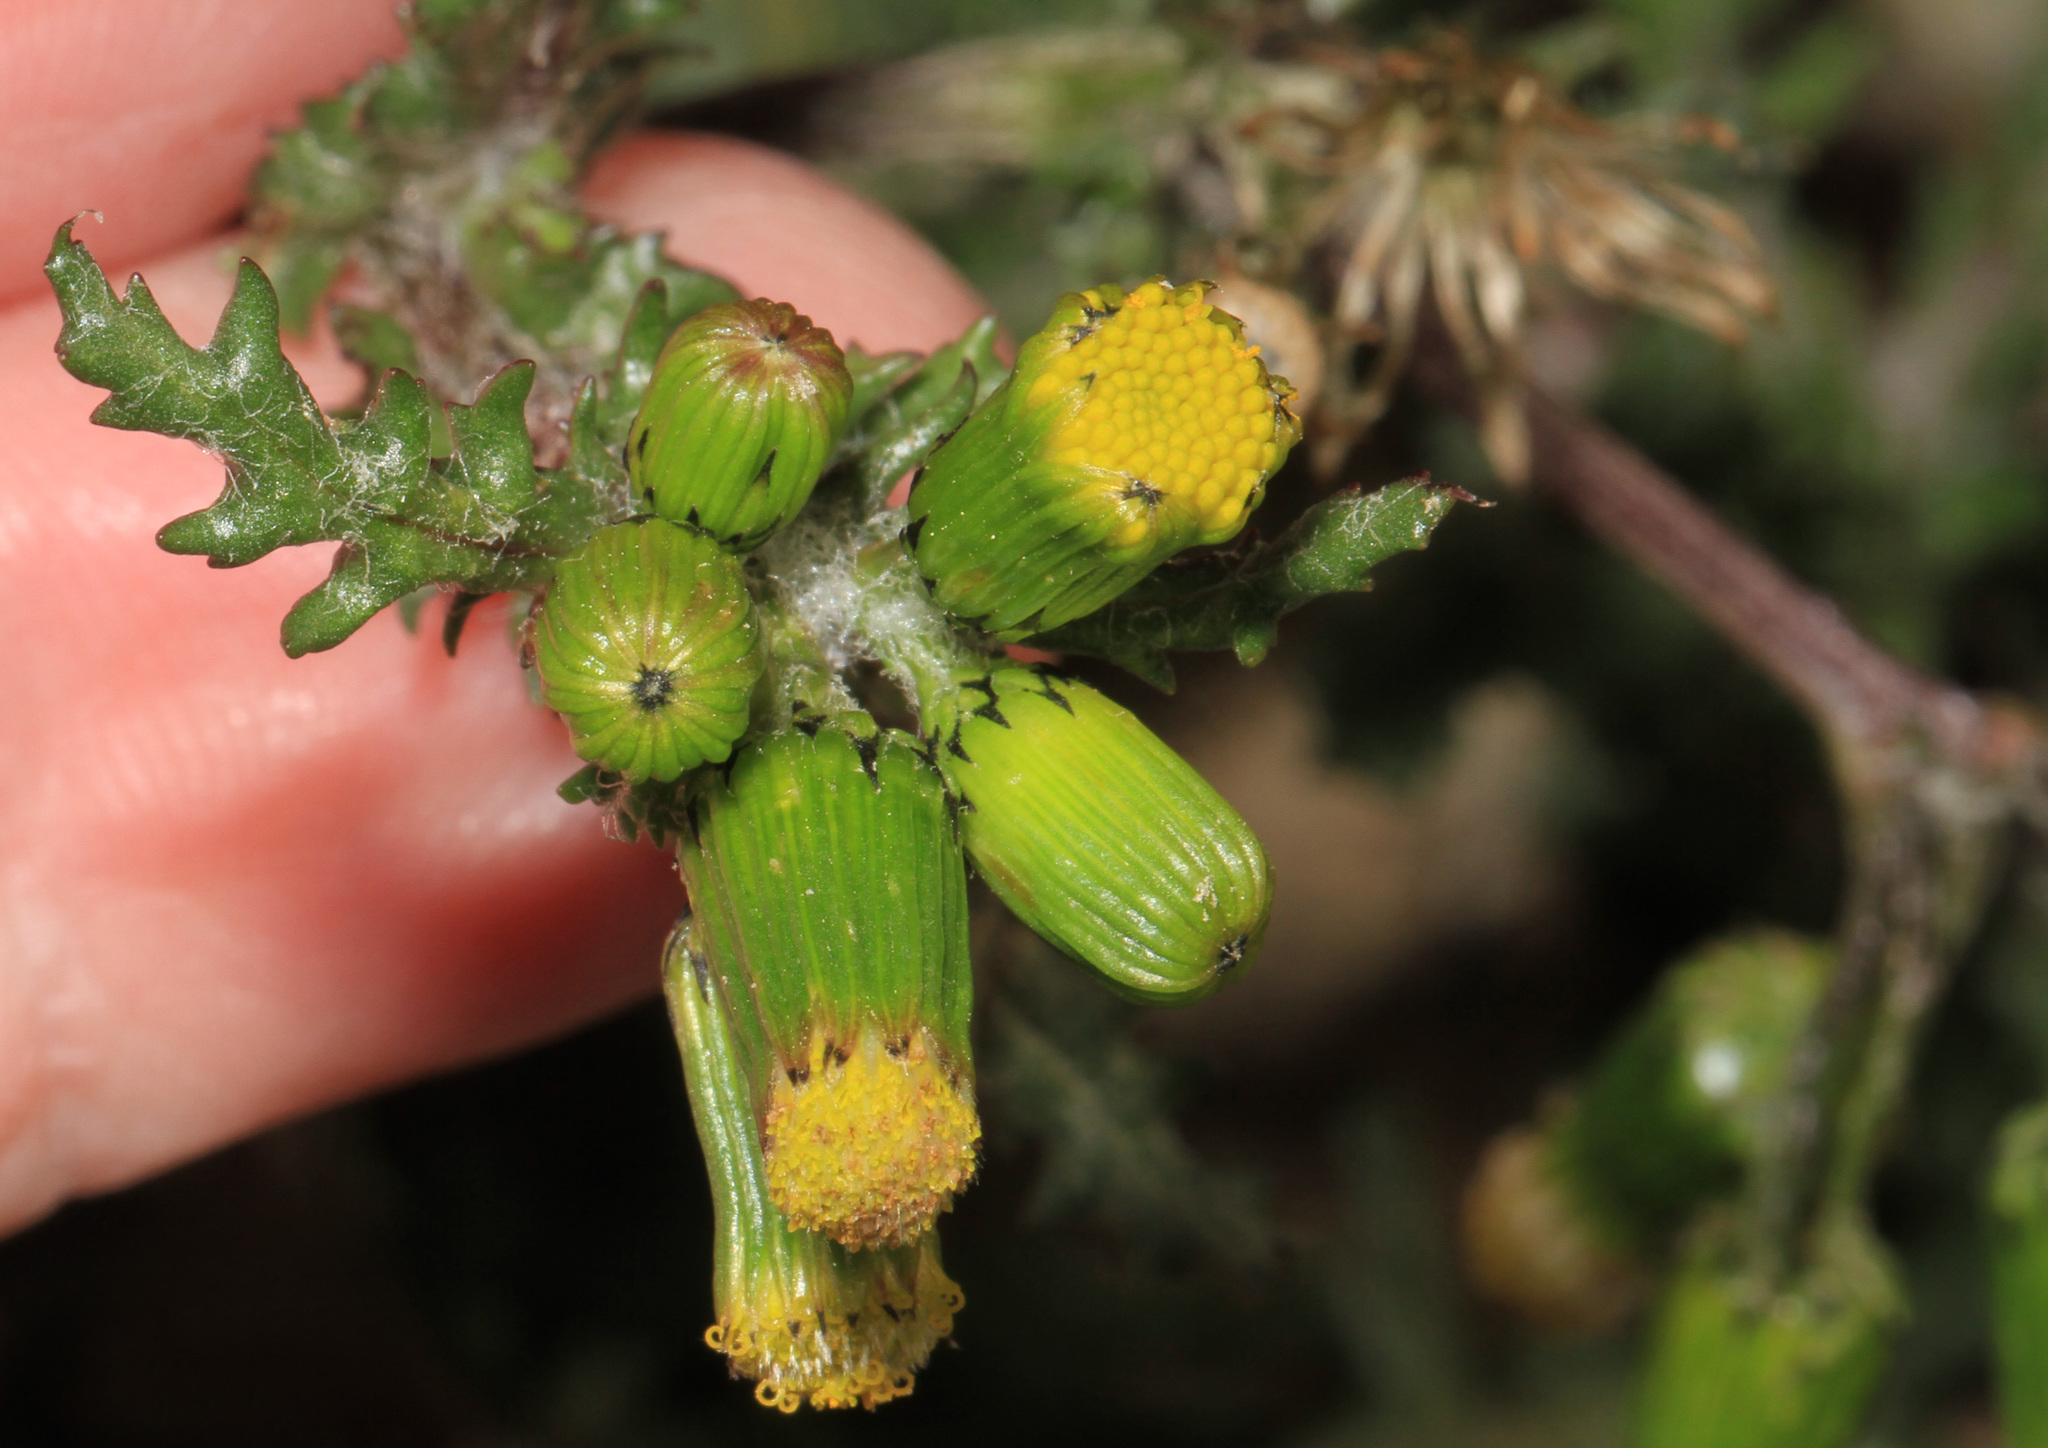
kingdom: Plantae
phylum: Tracheophyta
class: Magnoliopsida
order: Asterales
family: Asteraceae
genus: Senecio
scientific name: Senecio vulgaris
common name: Old-man-in-the-spring
